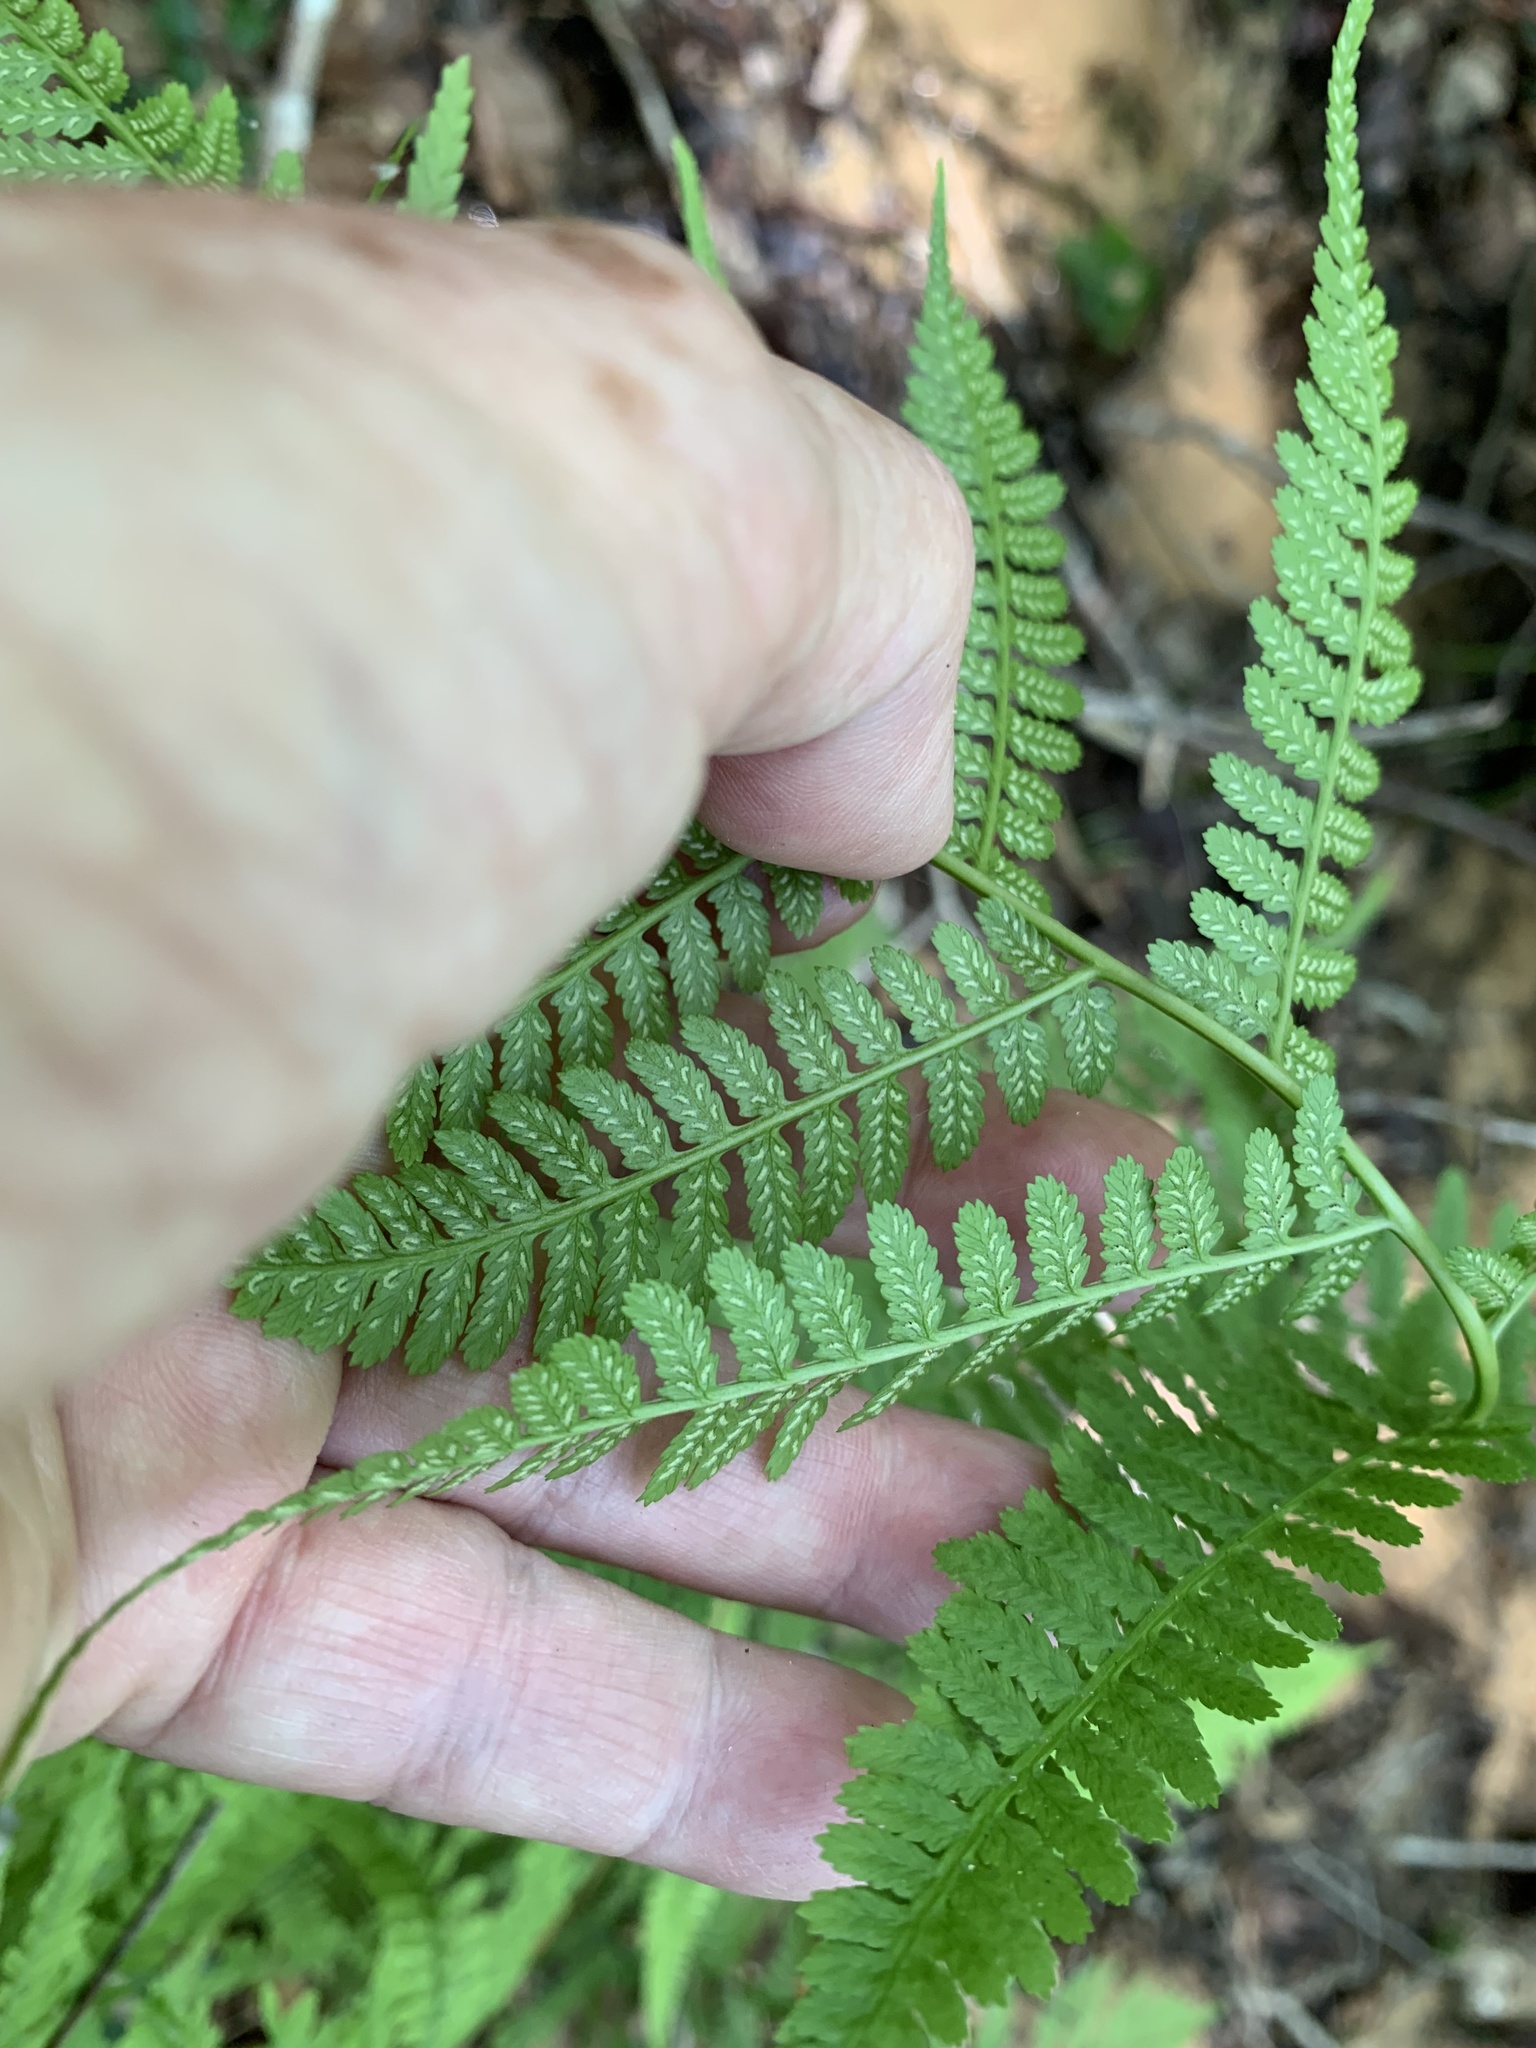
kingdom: Plantae
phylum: Tracheophyta
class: Polypodiopsida
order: Polypodiales
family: Athyriaceae
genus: Athyrium
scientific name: Athyrium asplenioides
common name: Southern lady fern
